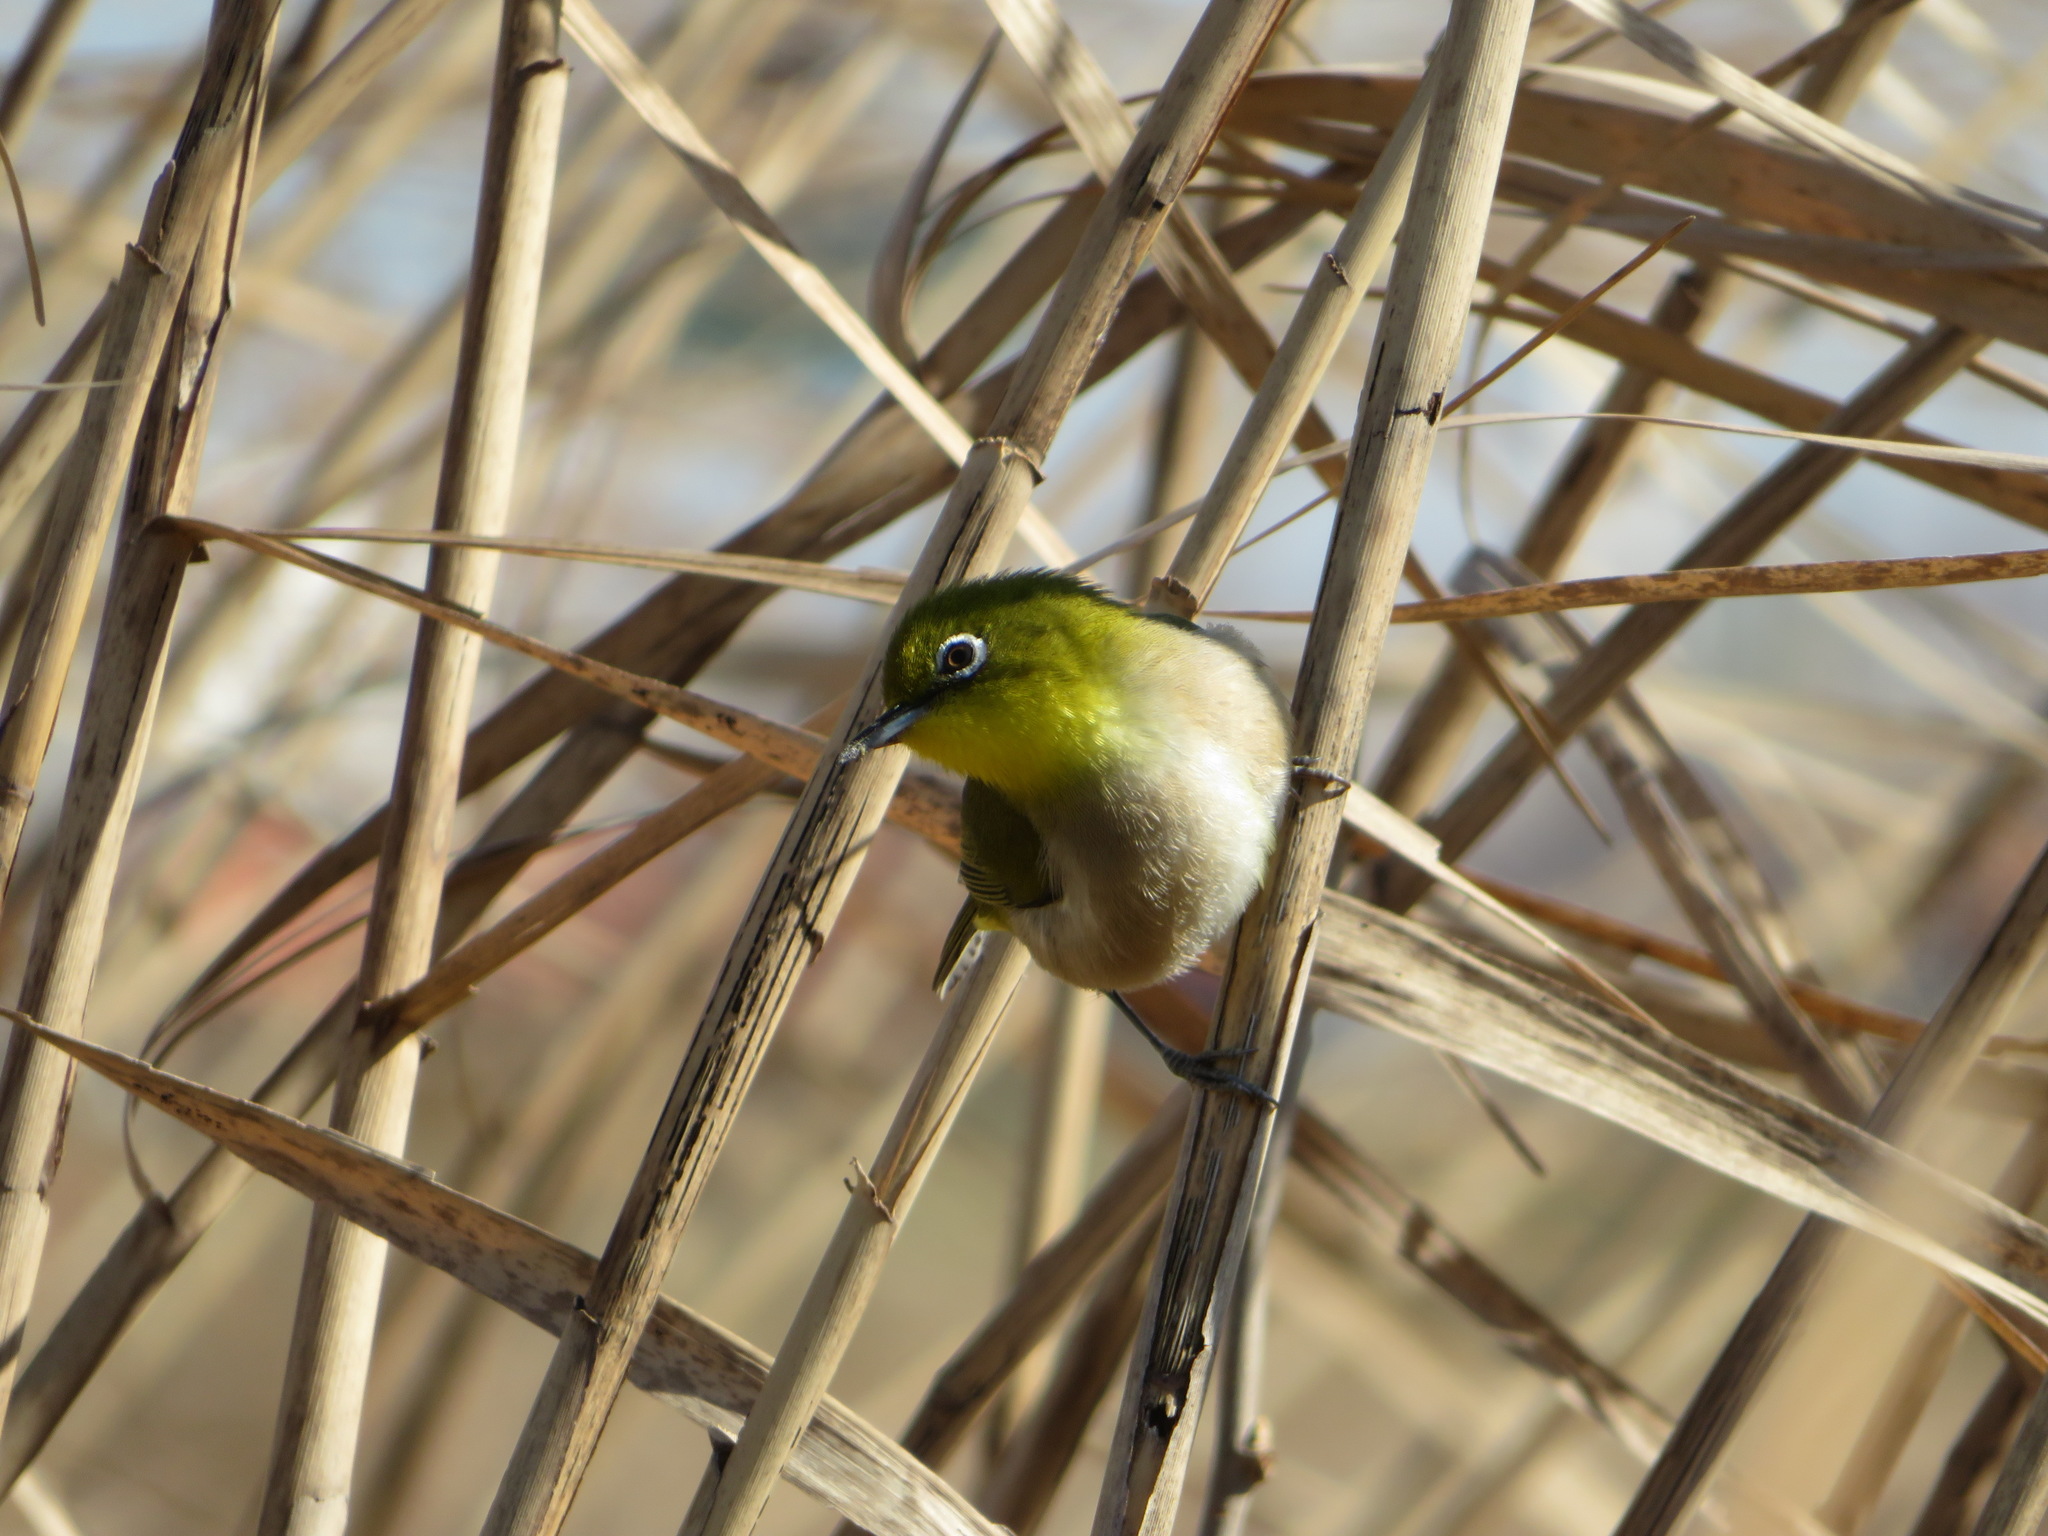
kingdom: Animalia
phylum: Chordata
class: Aves
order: Passeriformes
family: Zosteropidae
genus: Zosterops
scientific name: Zosterops japonicus
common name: Japanese white-eye
